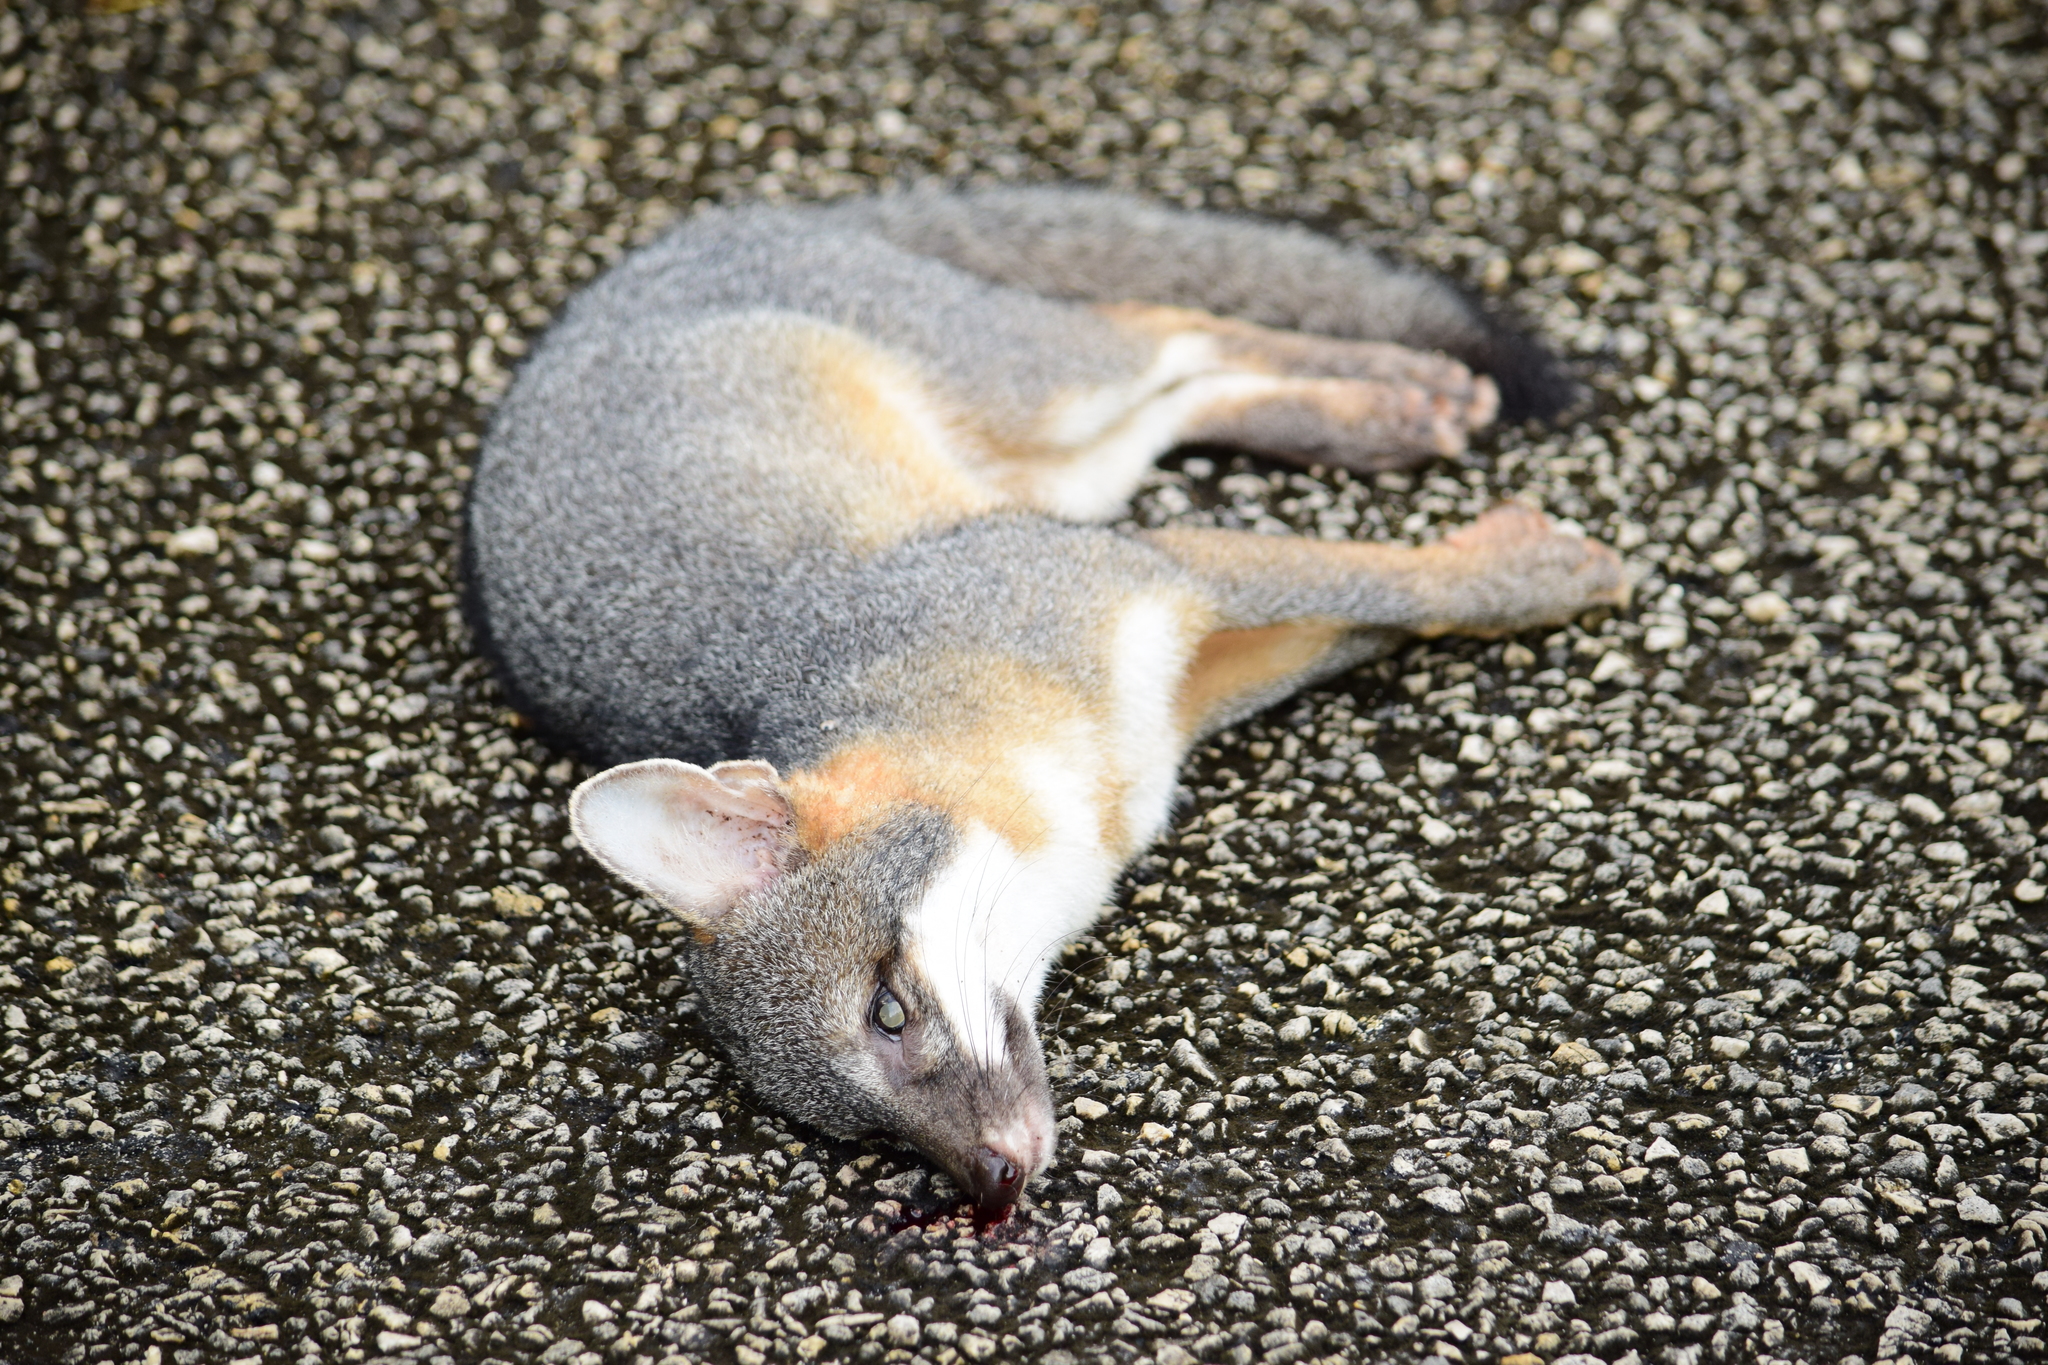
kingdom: Animalia
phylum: Chordata
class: Mammalia
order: Carnivora
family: Canidae
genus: Urocyon
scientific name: Urocyon cinereoargenteus
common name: Gray fox
